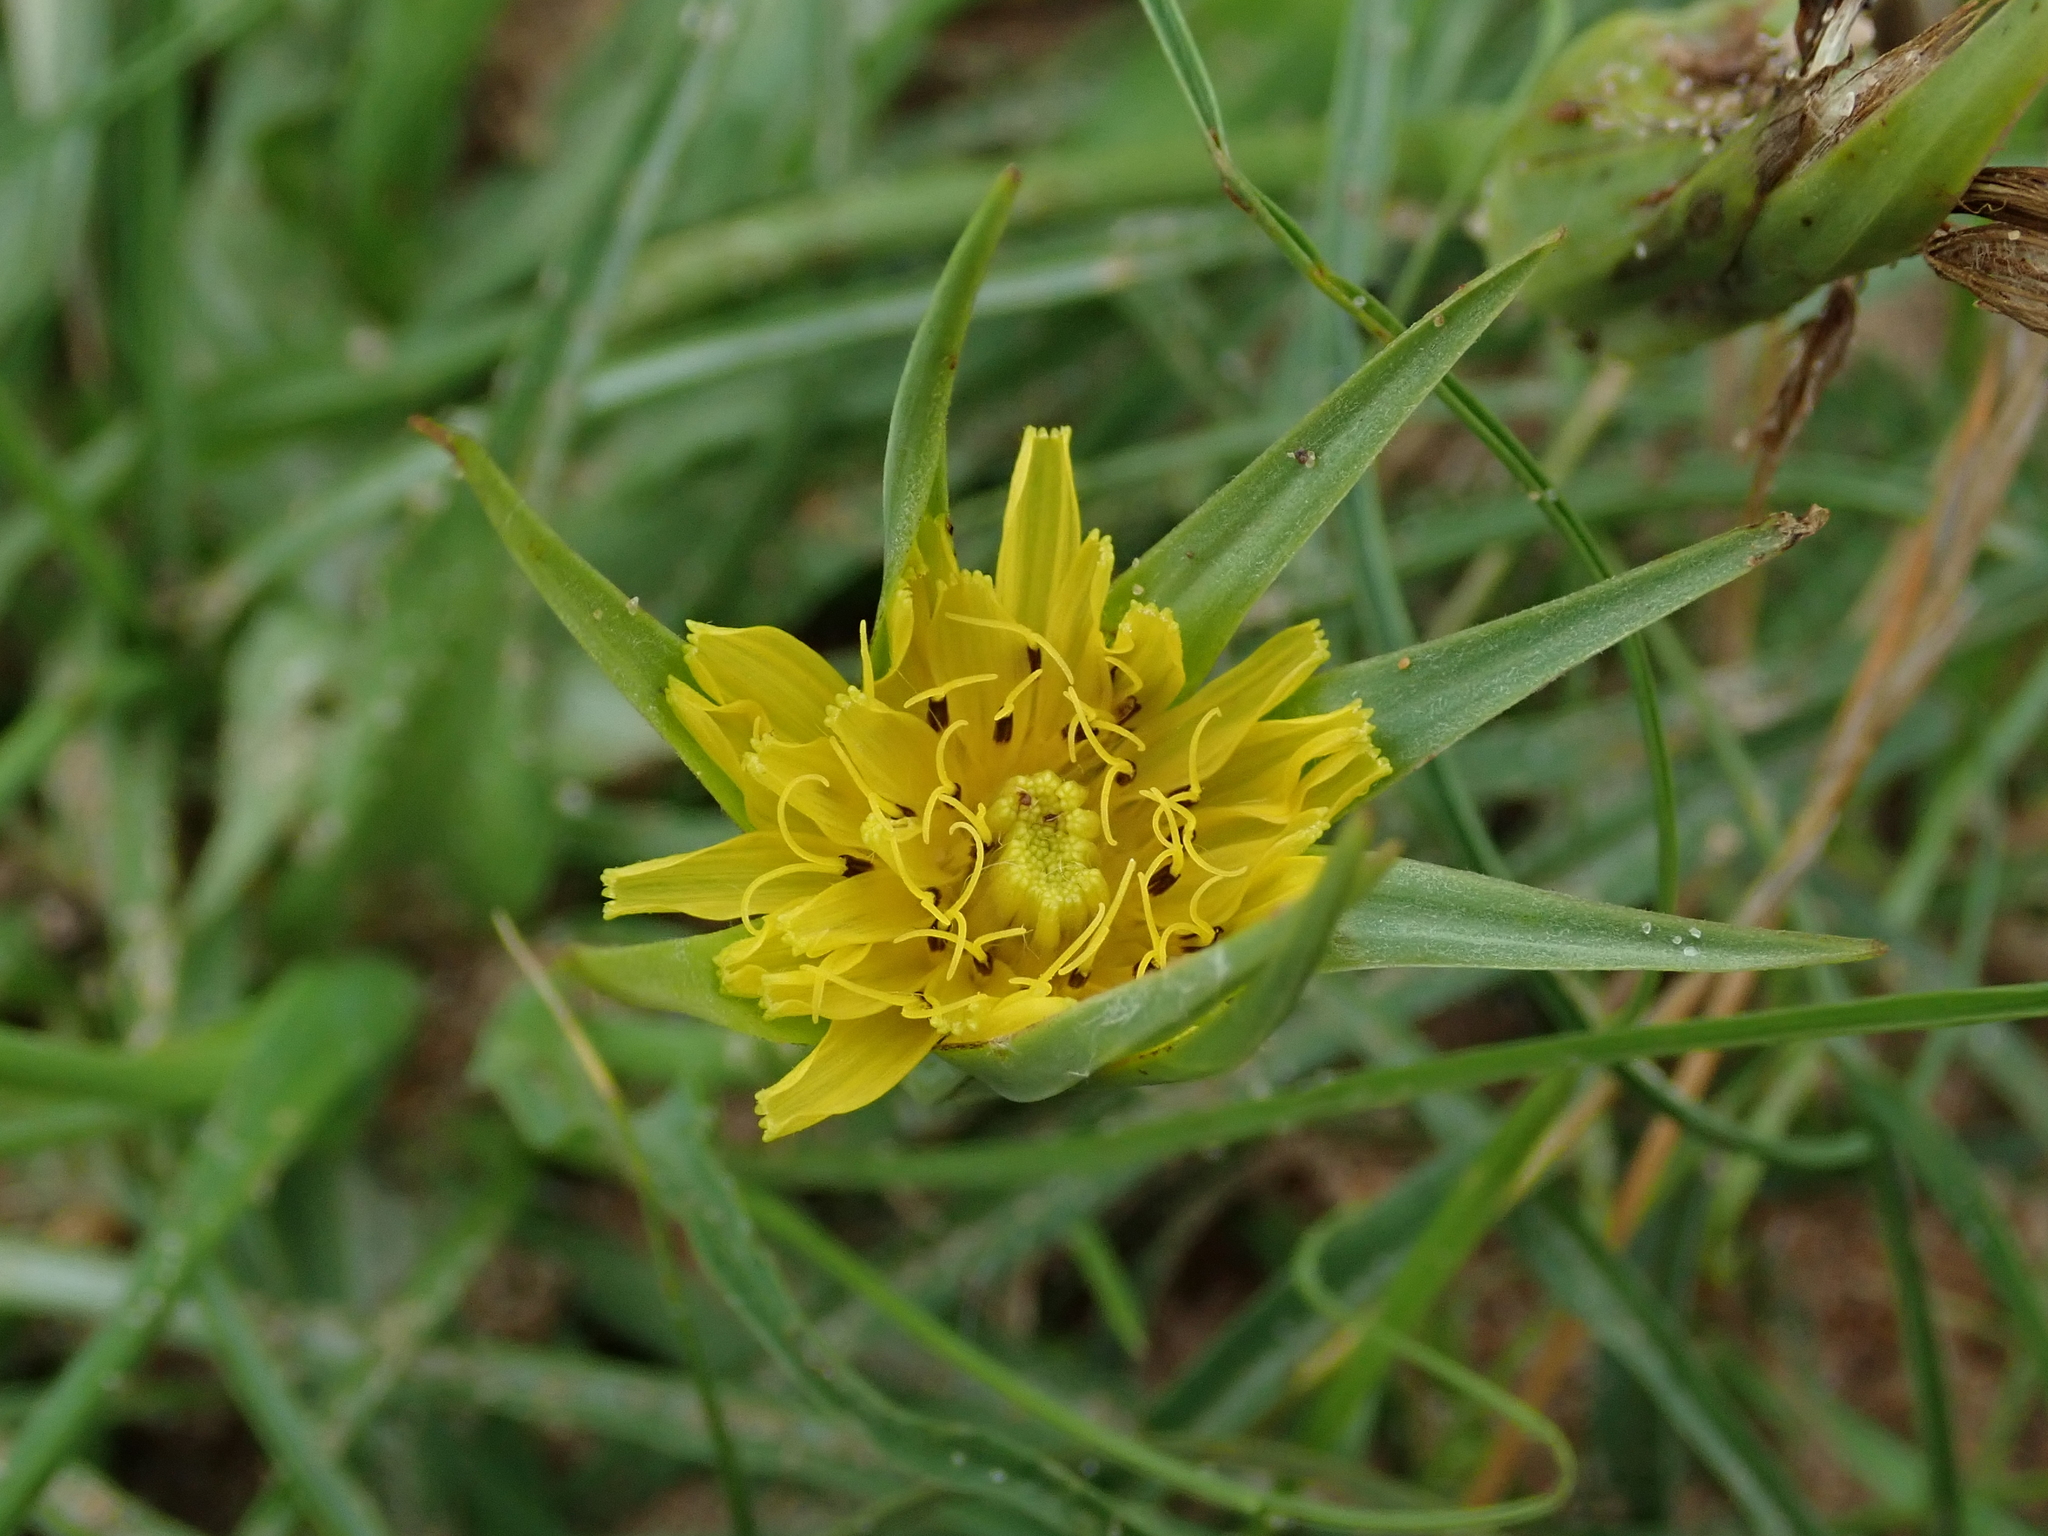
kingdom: Plantae
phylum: Tracheophyta
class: Magnoliopsida
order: Asterales
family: Asteraceae
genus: Tragopogon
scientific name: Tragopogon pratensis
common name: Goat's-beard
